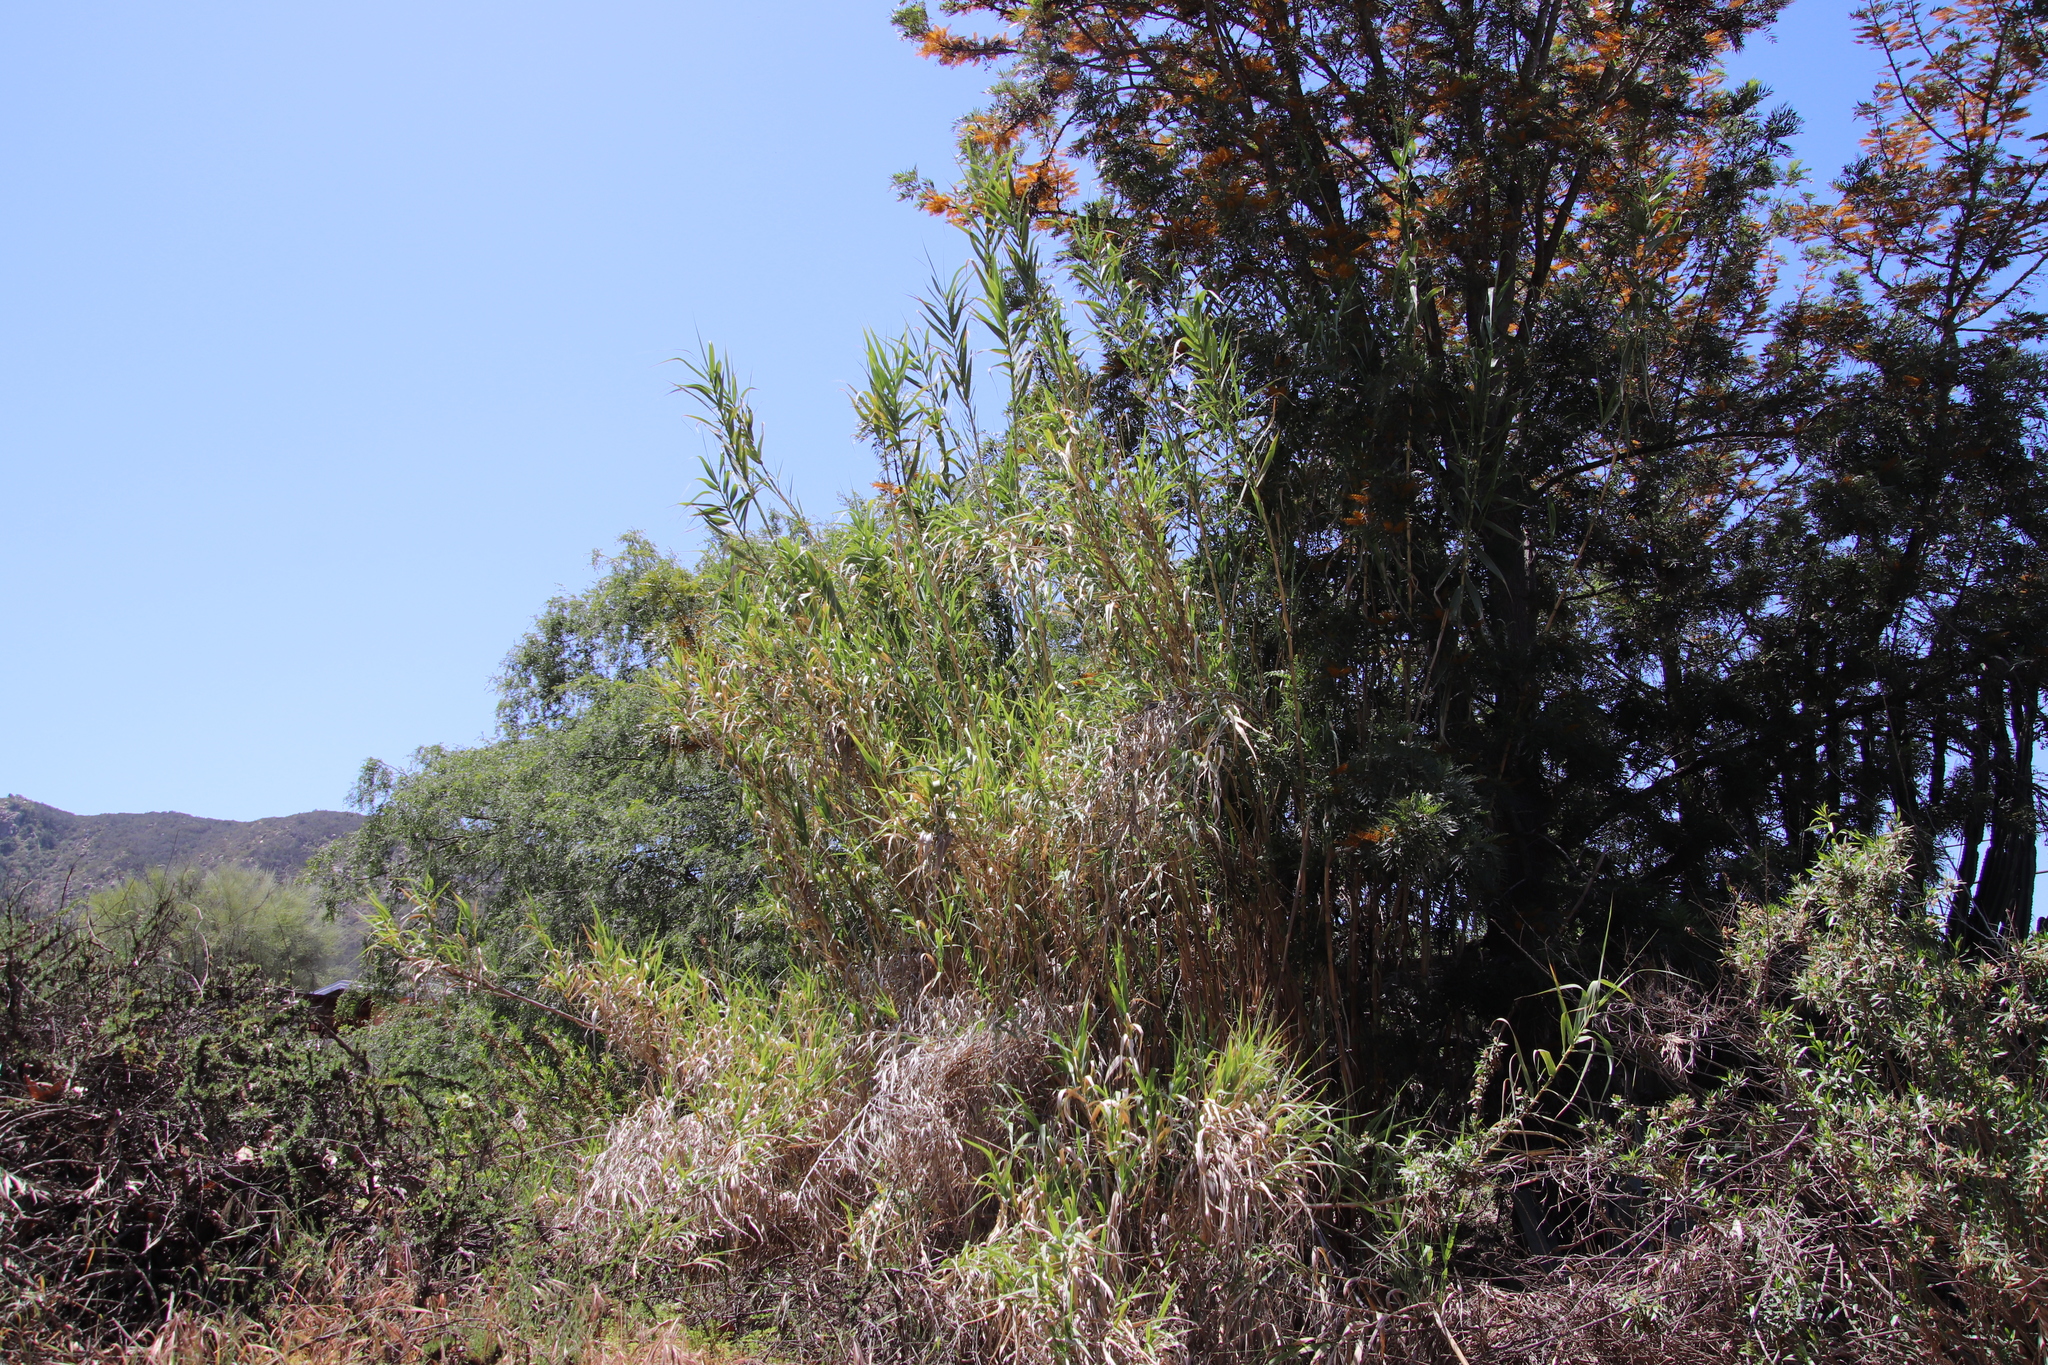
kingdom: Plantae
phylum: Tracheophyta
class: Liliopsida
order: Poales
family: Poaceae
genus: Arundo
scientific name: Arundo donax
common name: Giant reed
